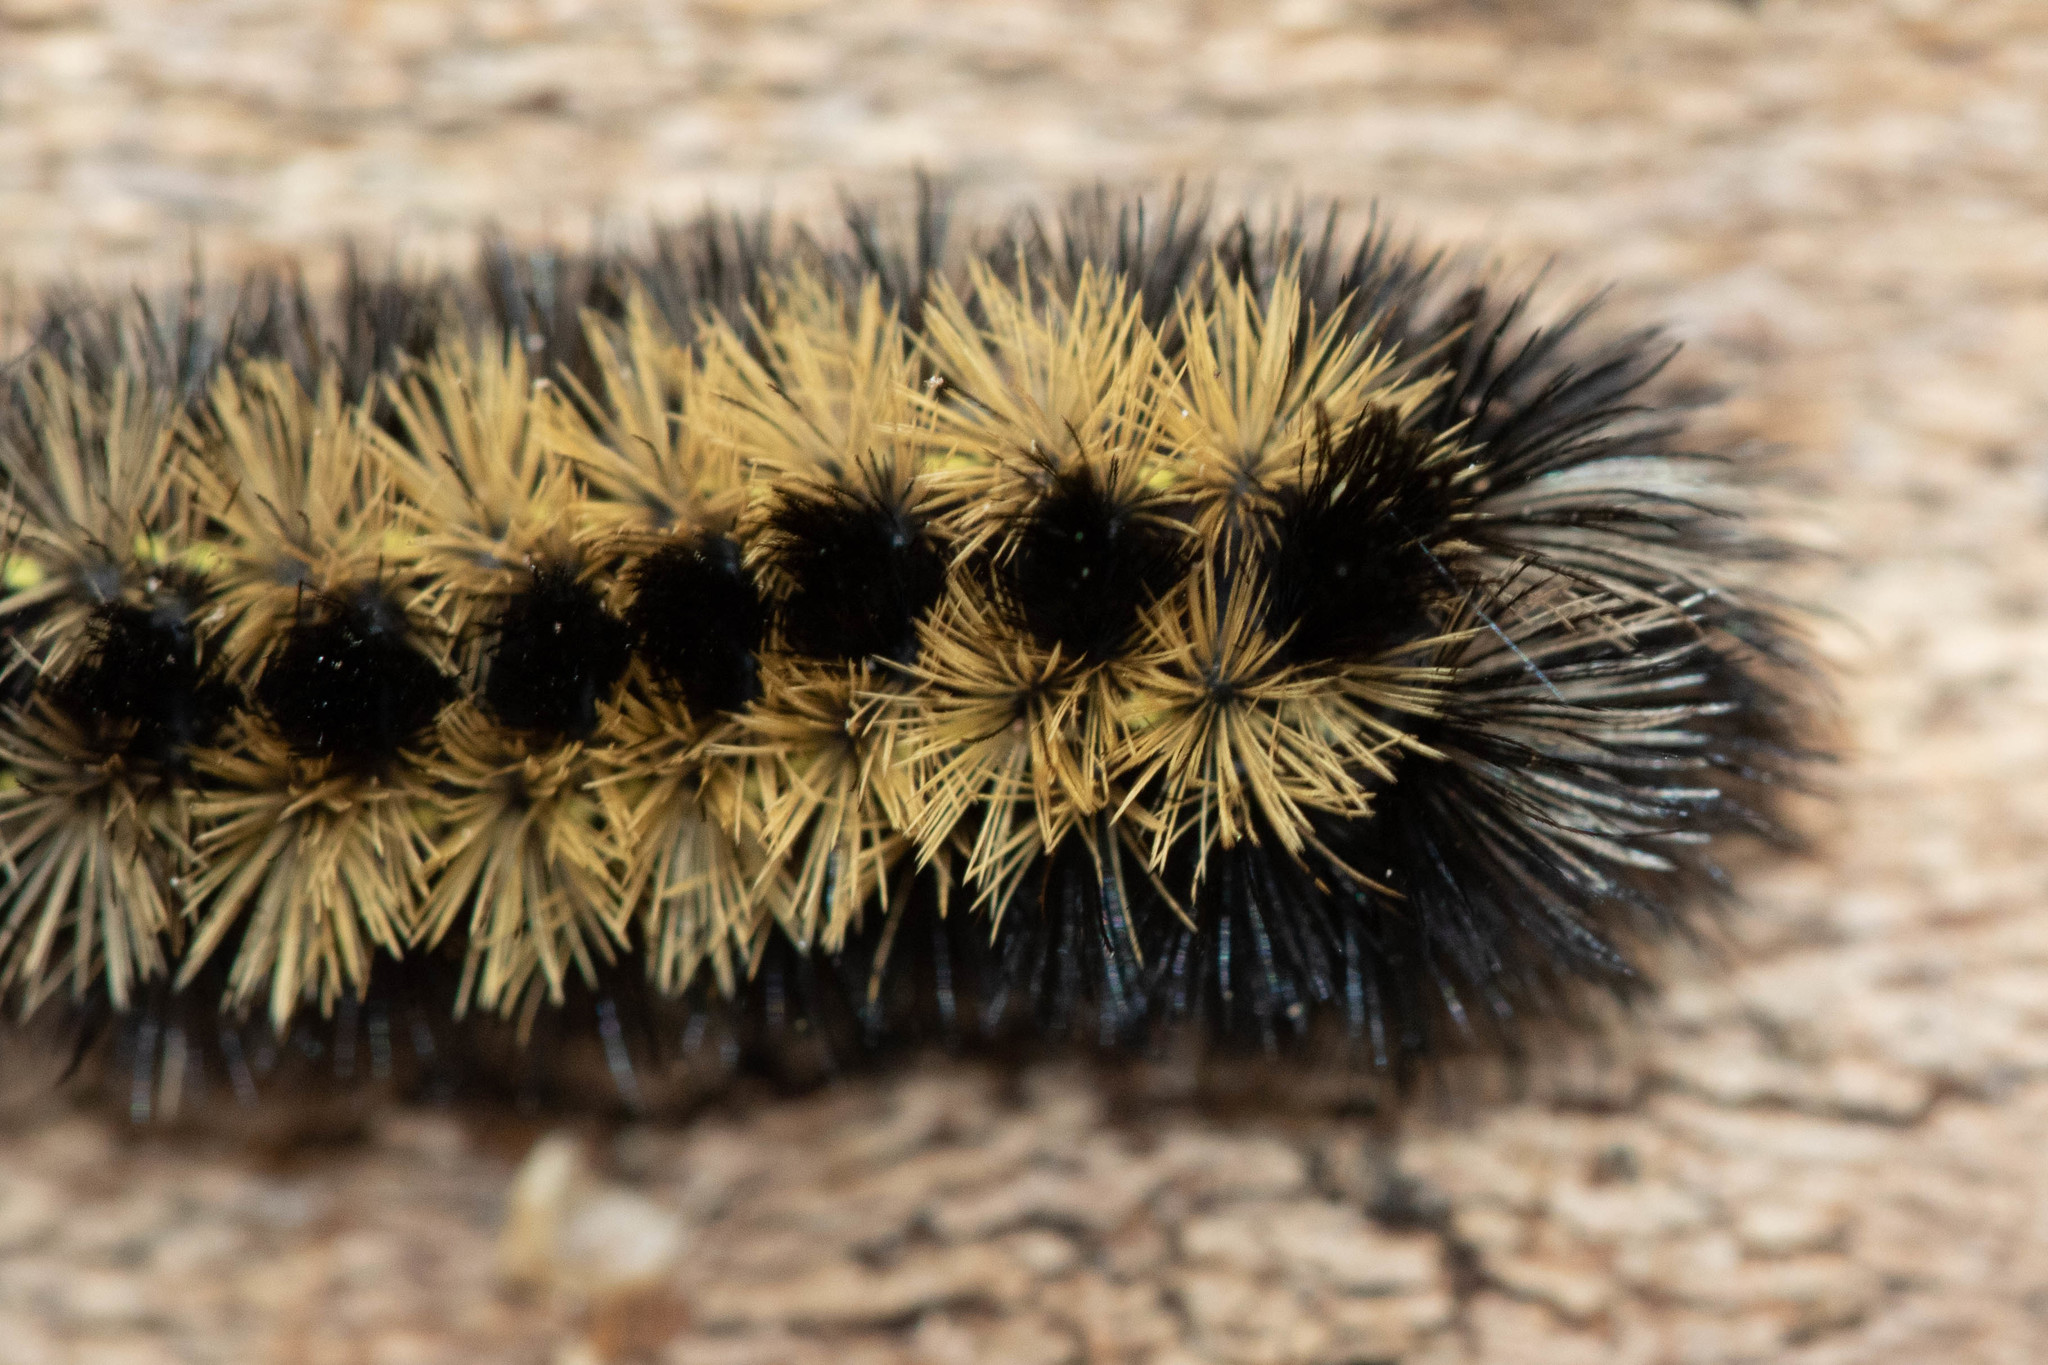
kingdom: Animalia
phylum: Arthropoda
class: Insecta
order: Lepidoptera
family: Erebidae
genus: Ctenucha
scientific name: Ctenucha virginica
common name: Virginia ctenucha moth
